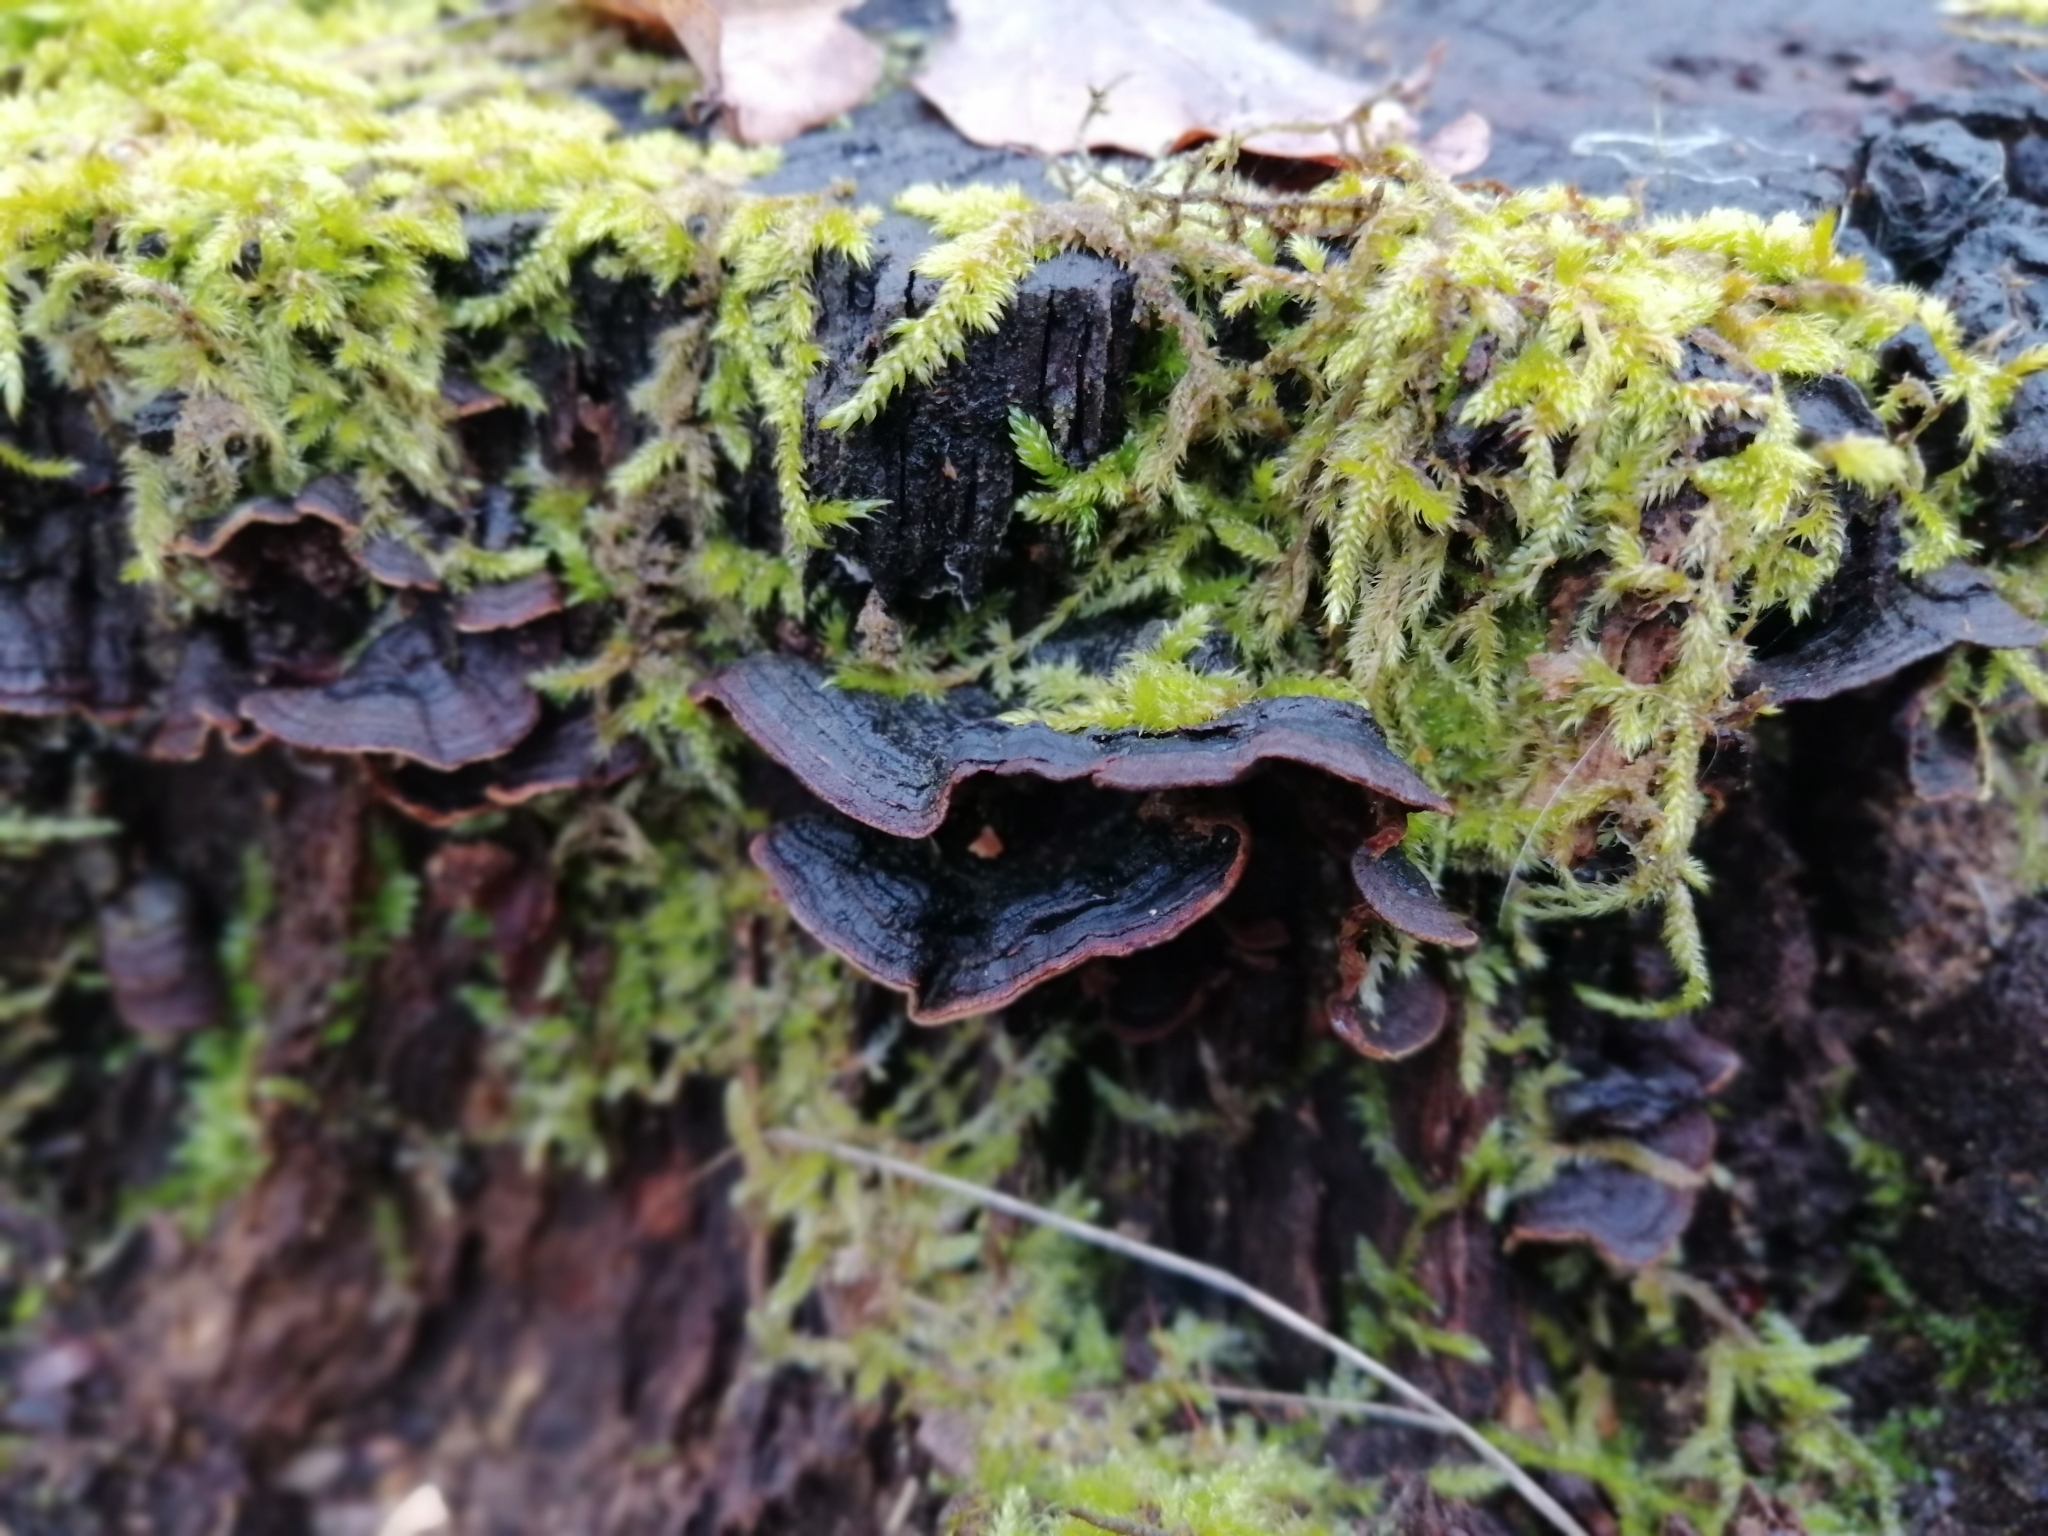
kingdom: Fungi
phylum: Basidiomycota
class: Agaricomycetes
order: Hymenochaetales
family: Hymenochaetaceae
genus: Hymenochaete
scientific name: Hymenochaete rubiginosa
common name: Oak curtain crust
